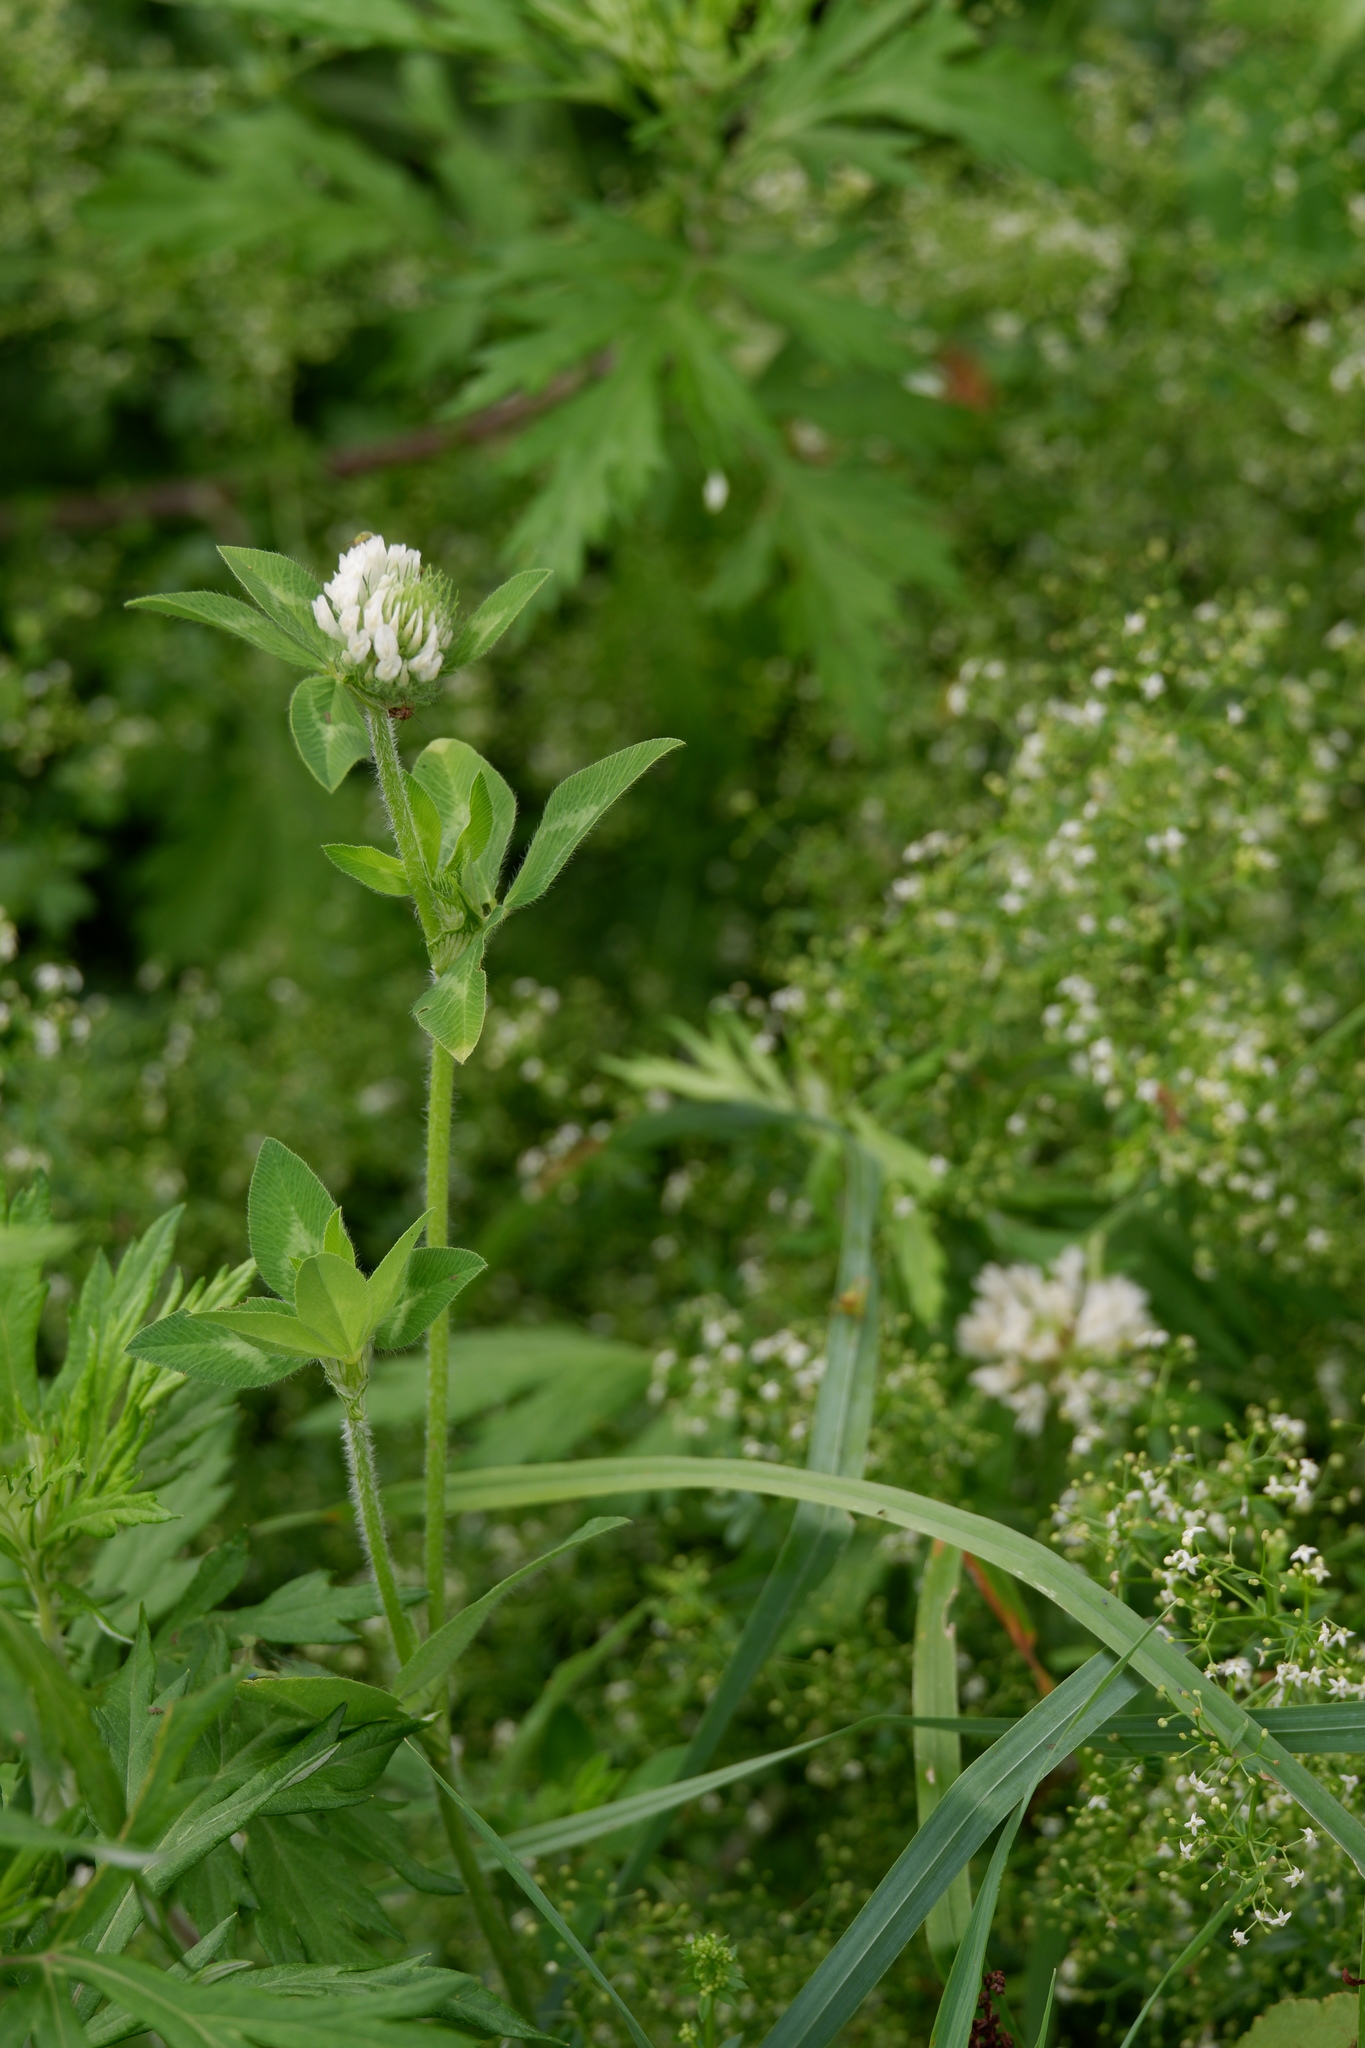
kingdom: Plantae
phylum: Tracheophyta
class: Magnoliopsida
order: Fabales
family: Fabaceae
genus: Trifolium
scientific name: Trifolium pratense
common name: Red clover
